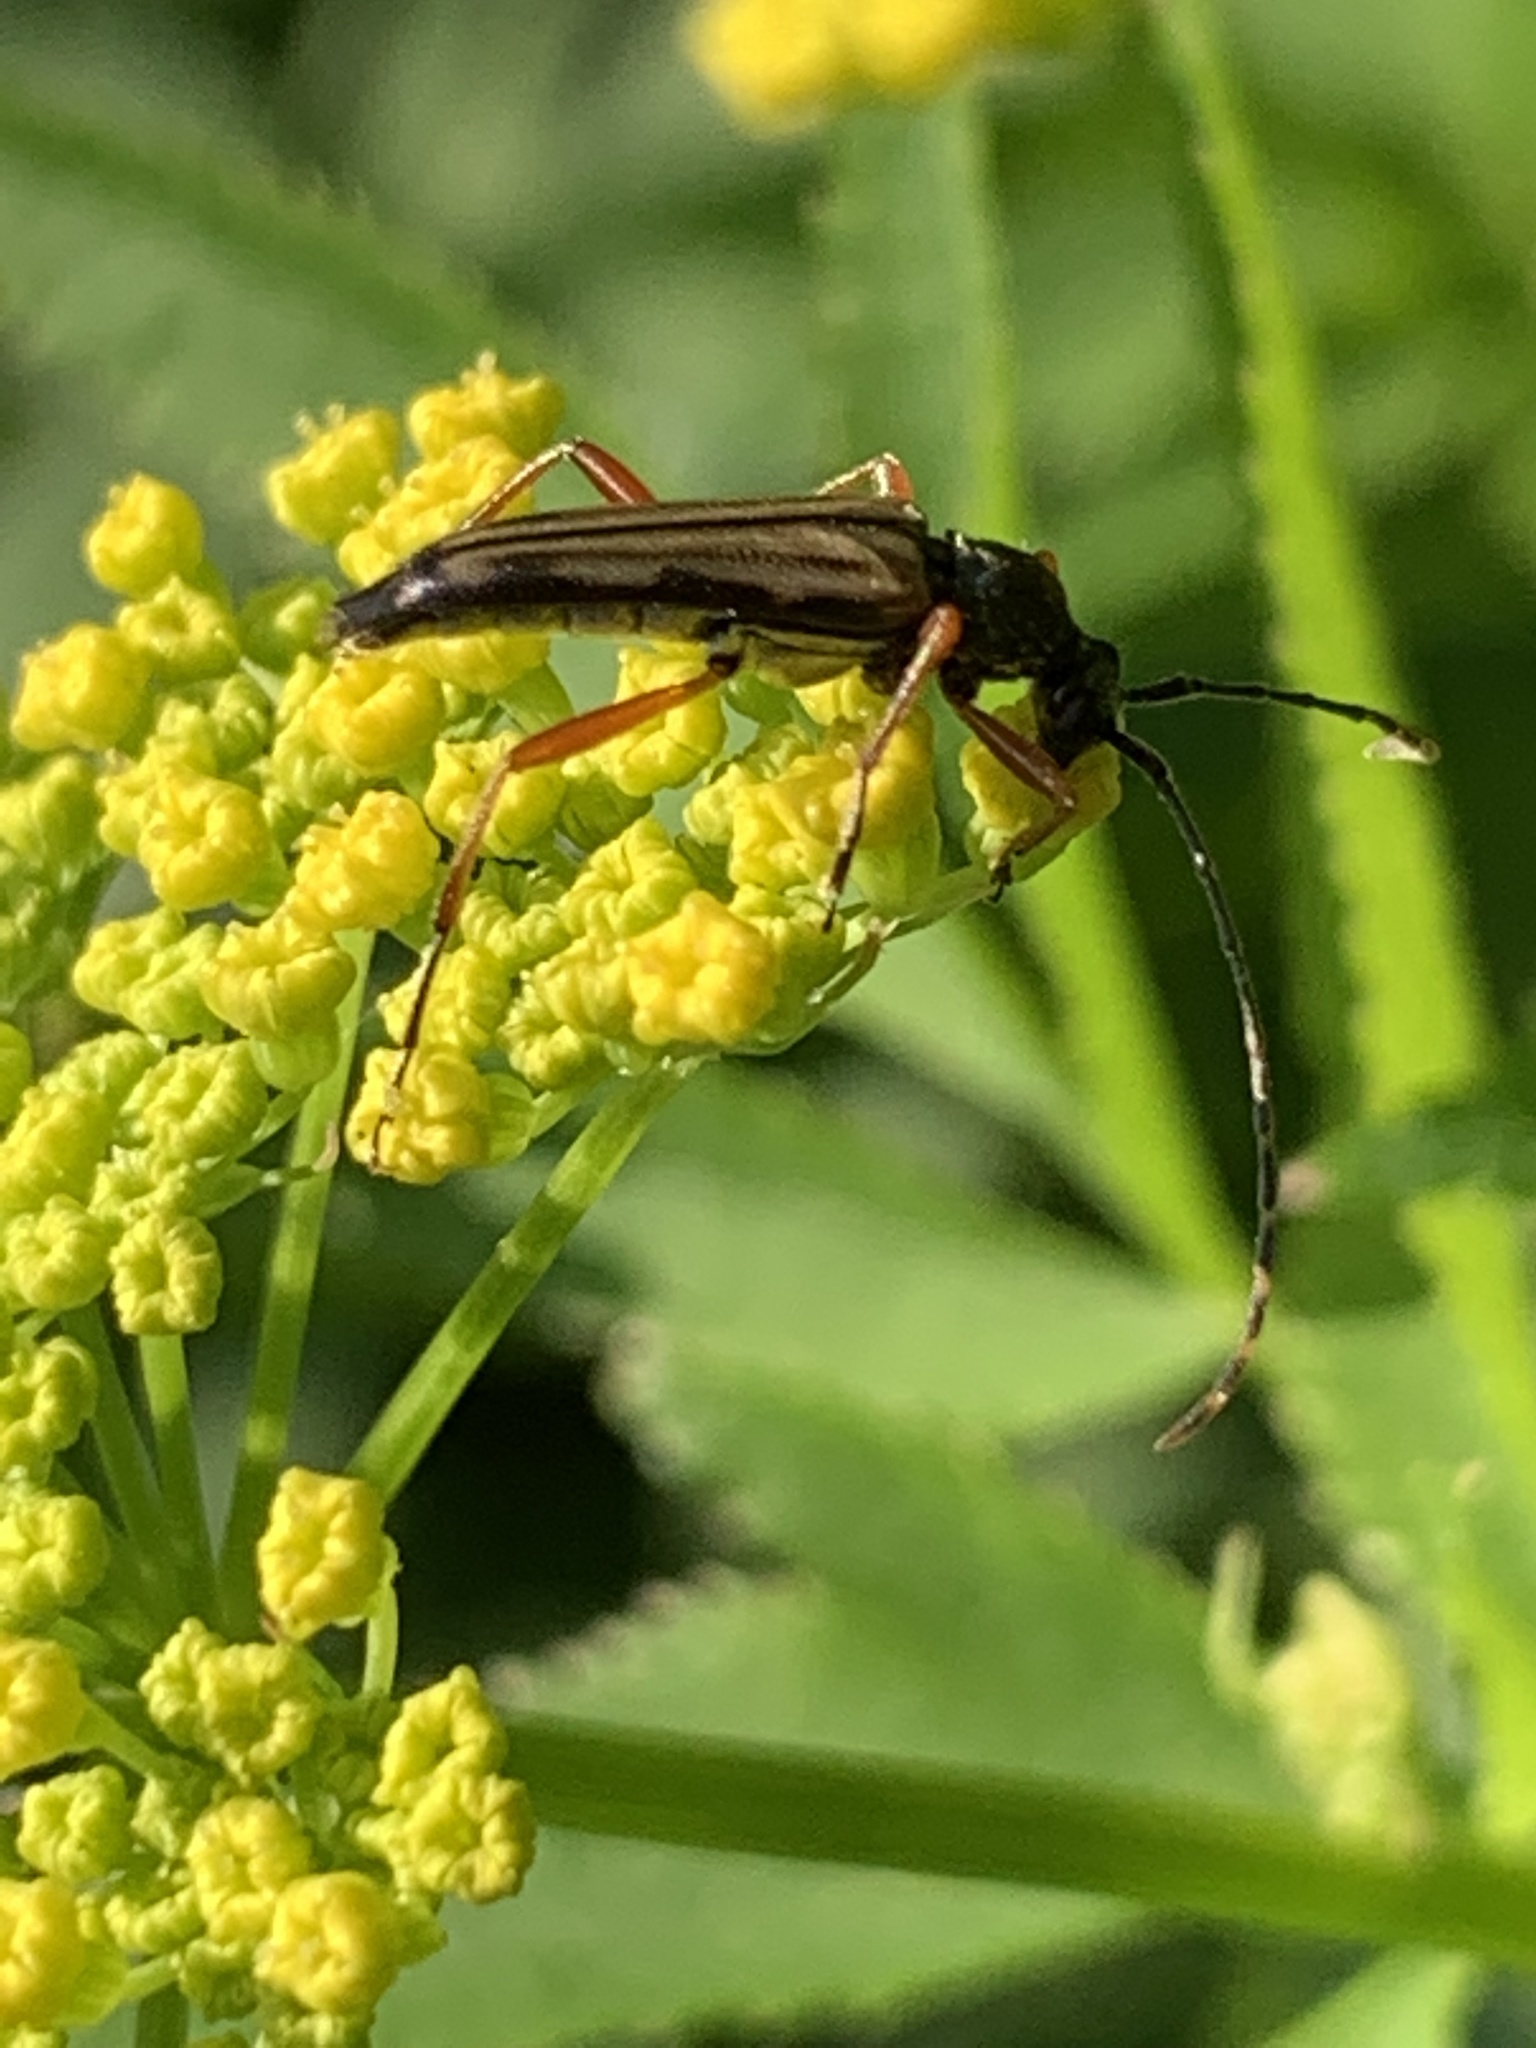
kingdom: Animalia
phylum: Arthropoda
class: Insecta
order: Coleoptera
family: Cerambycidae
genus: Analeptura
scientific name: Analeptura lineola
